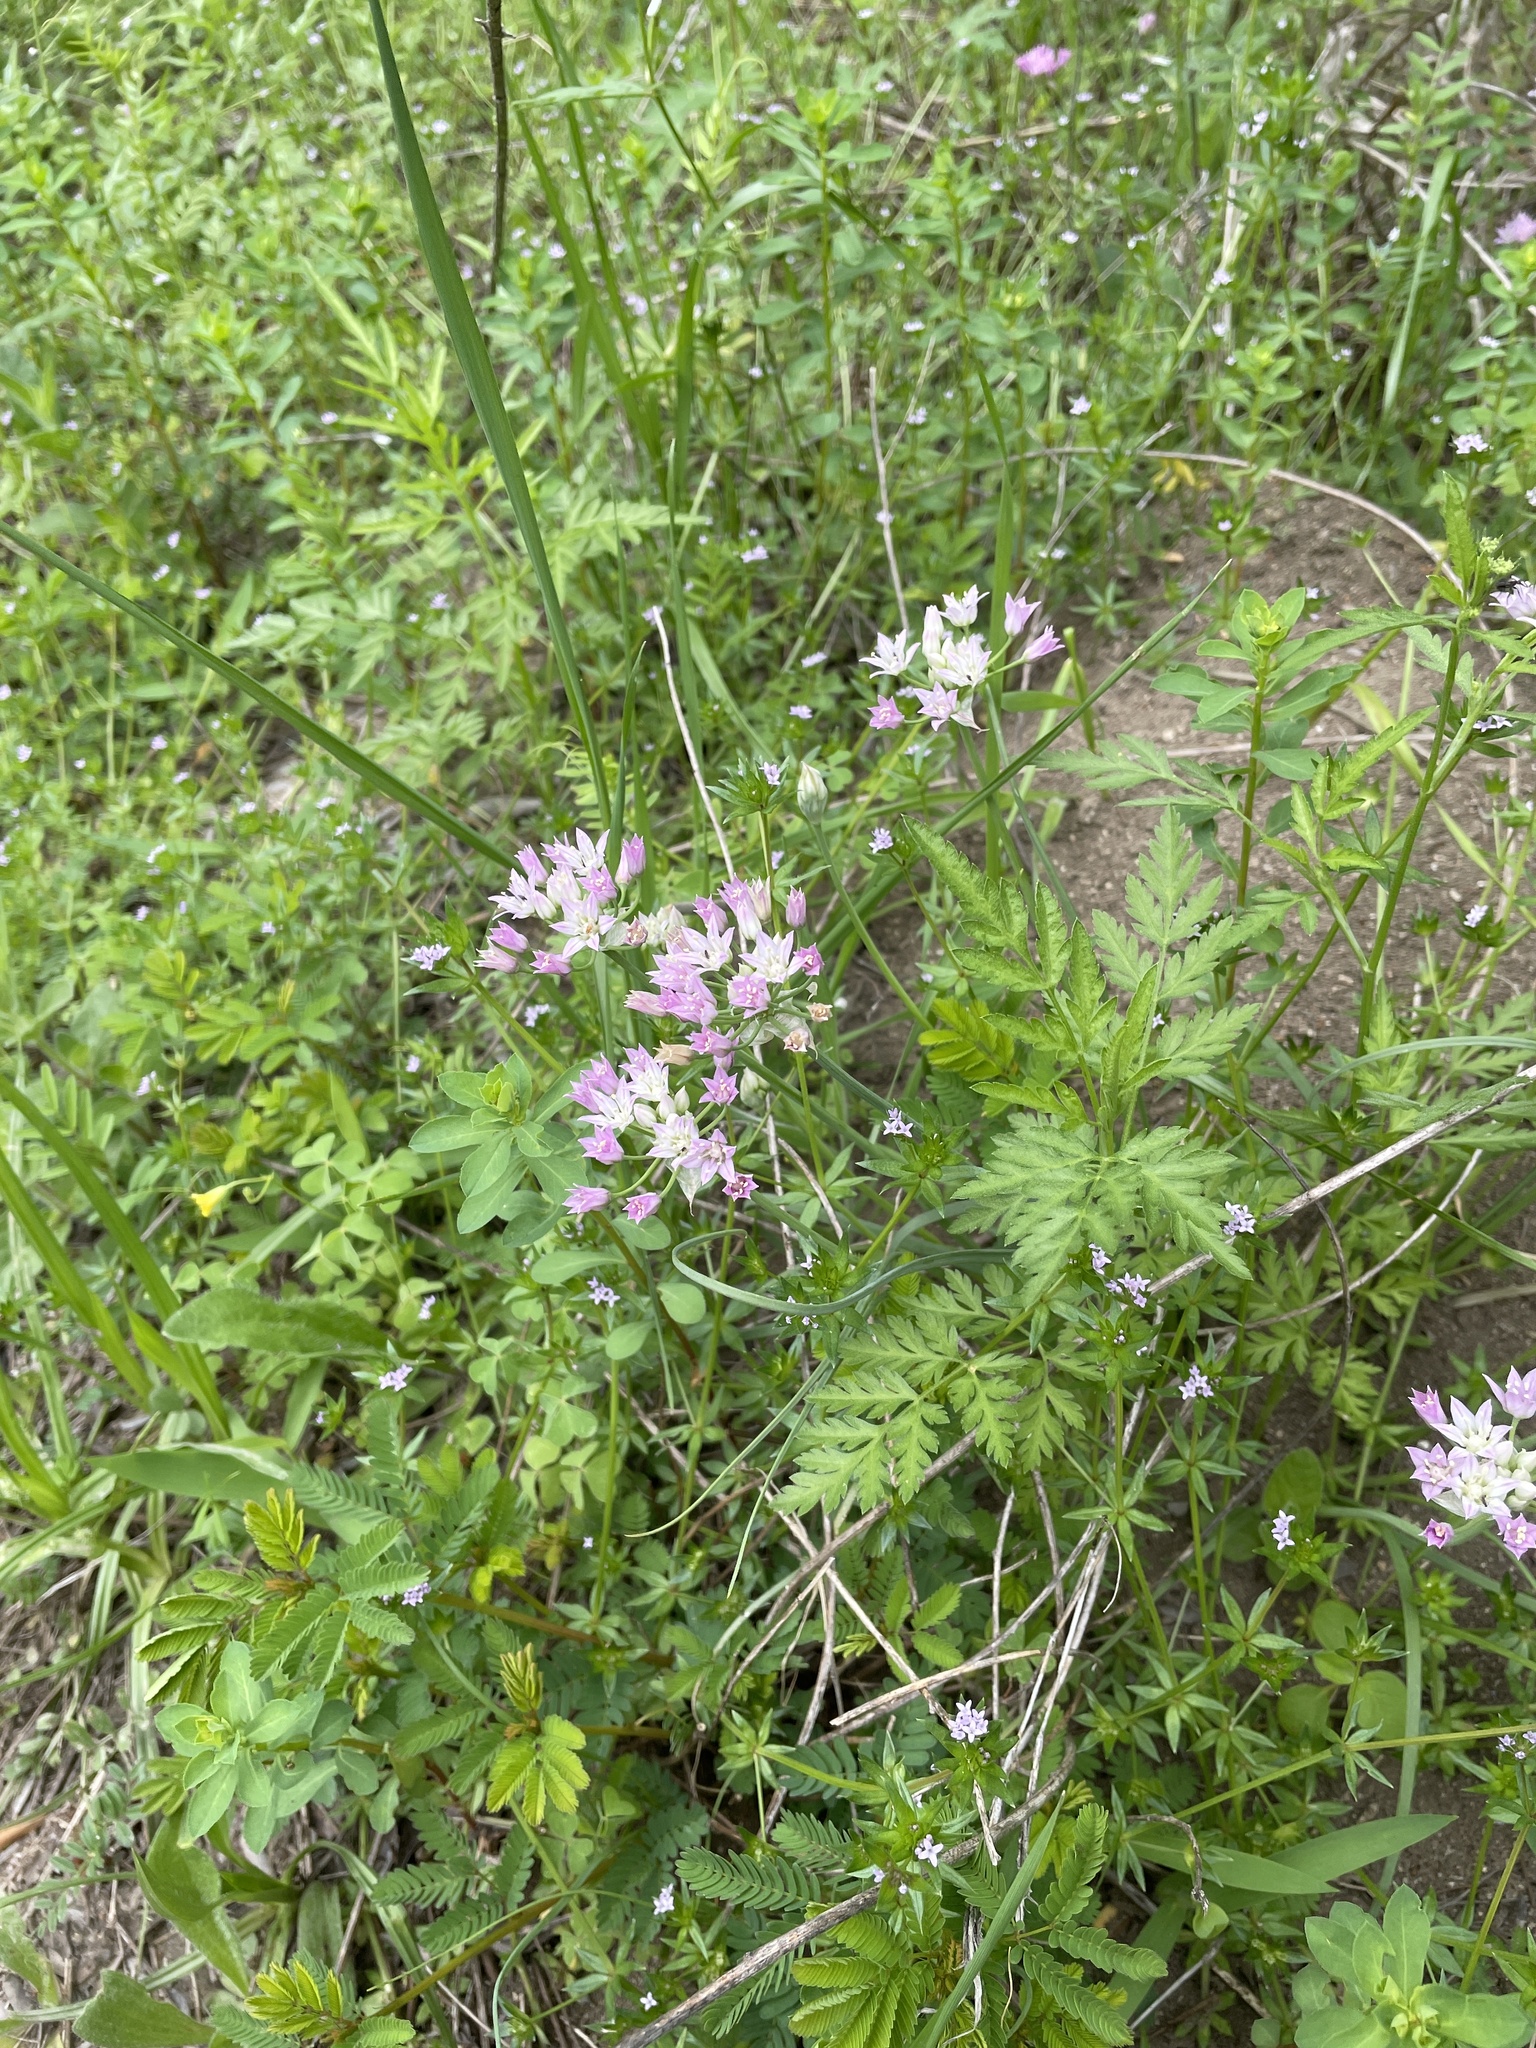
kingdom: Plantae
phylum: Tracheophyta
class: Liliopsida
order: Asparagales
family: Amaryllidaceae
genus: Allium
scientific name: Allium drummondii
